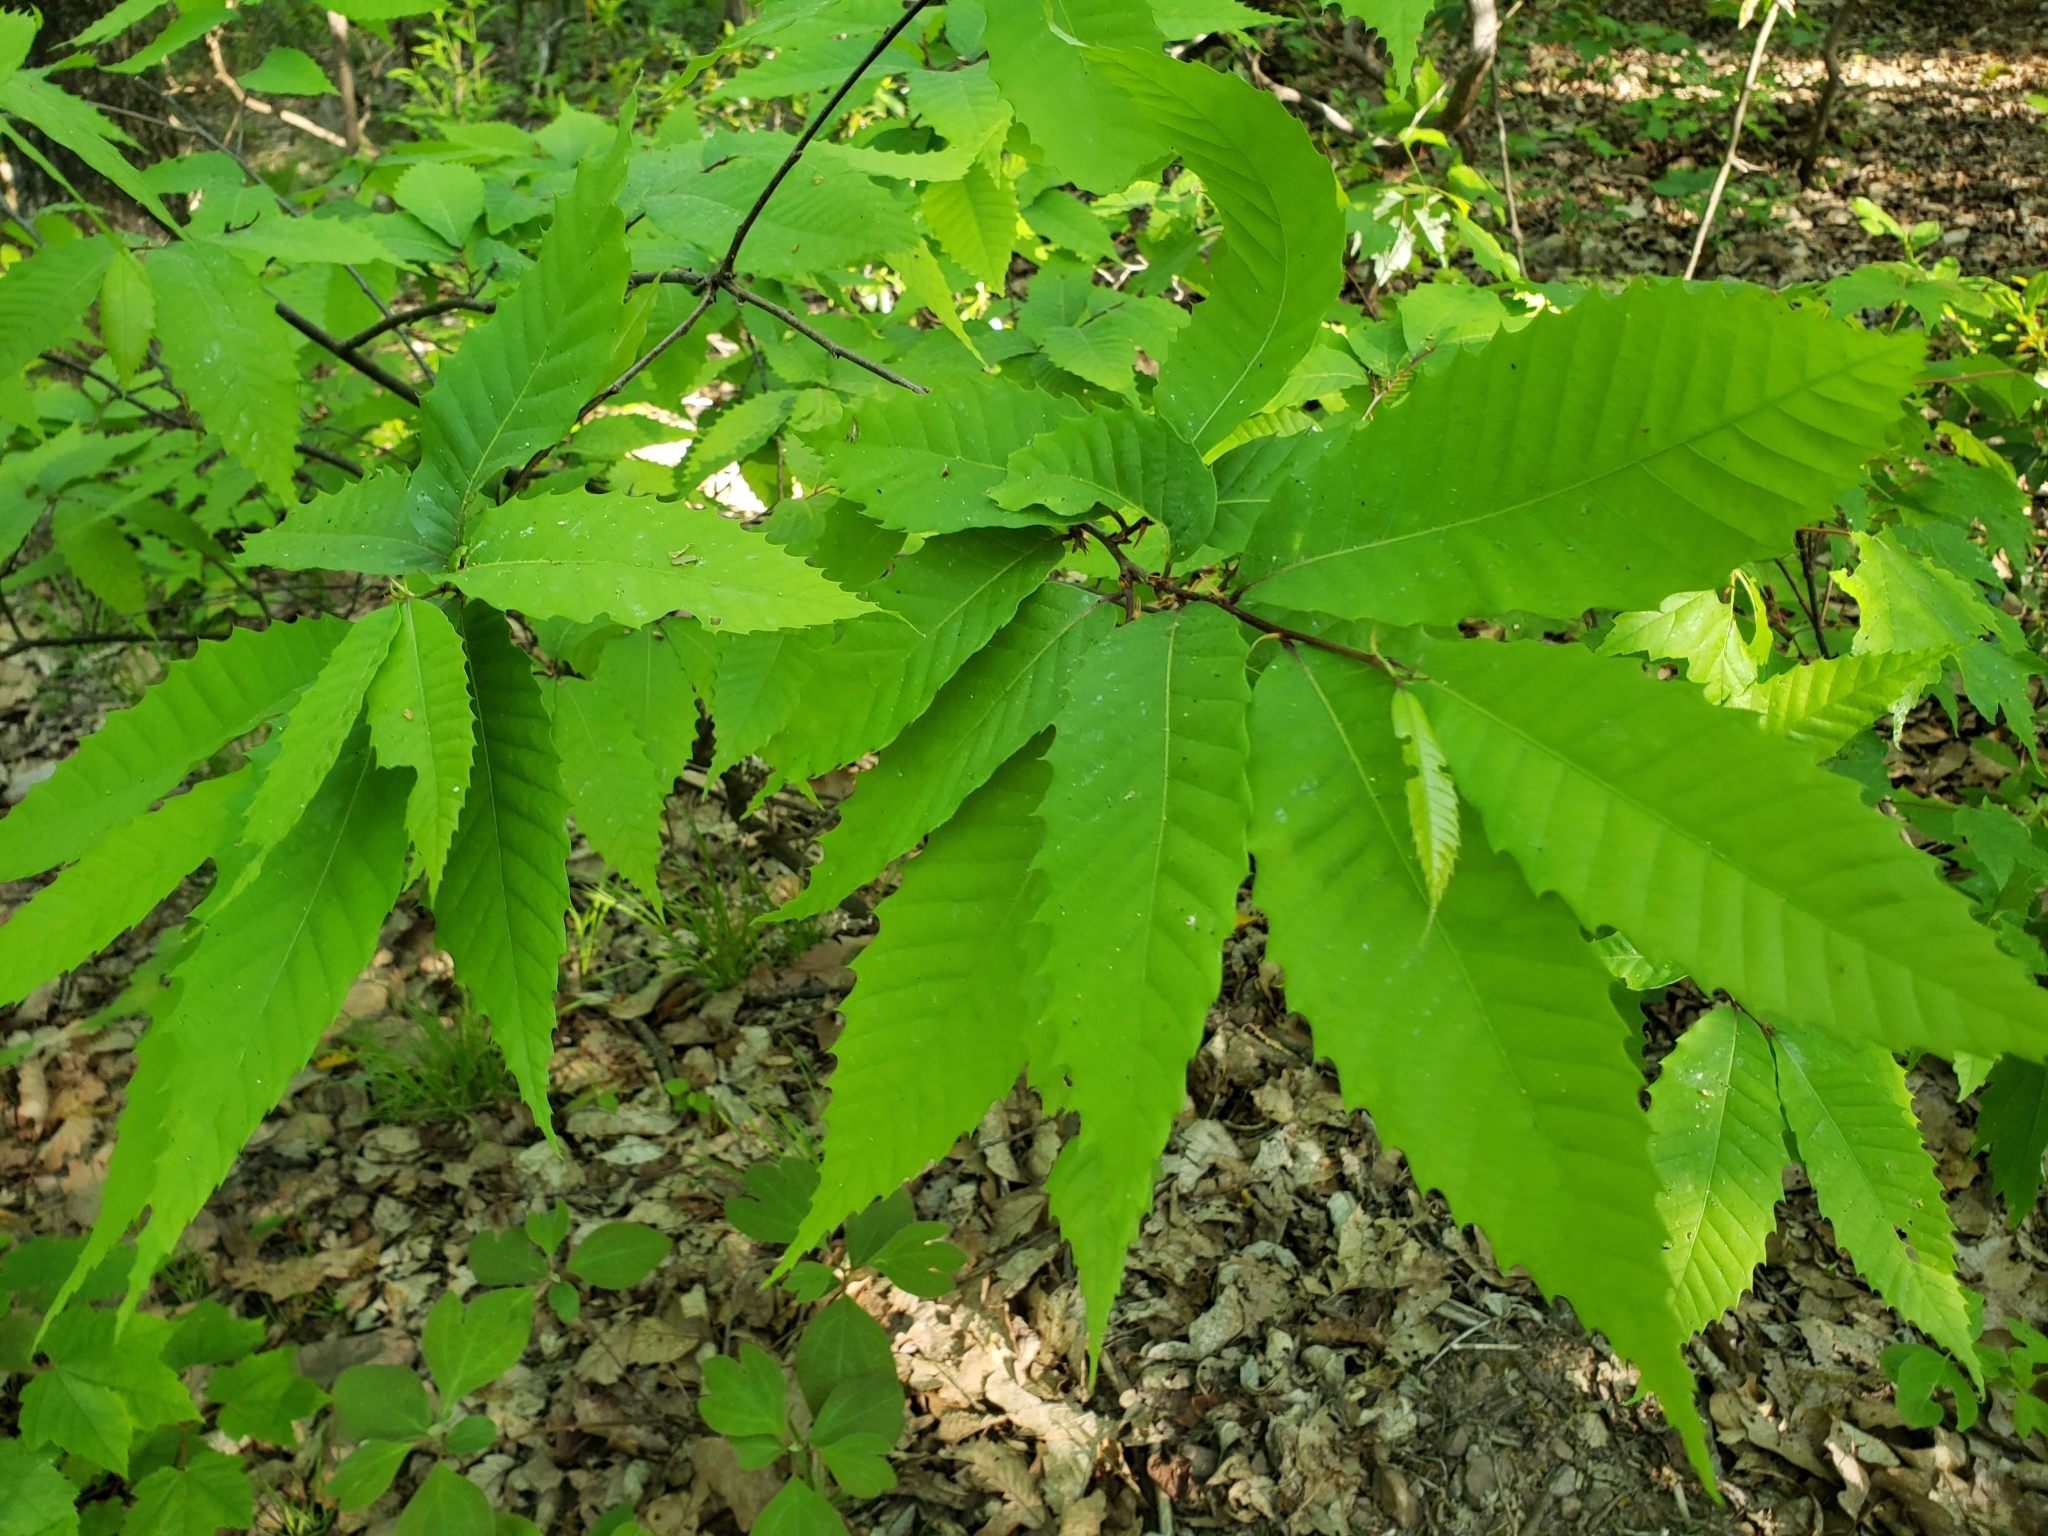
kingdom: Plantae
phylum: Tracheophyta
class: Magnoliopsida
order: Fagales
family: Fagaceae
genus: Castanea
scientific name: Castanea dentata
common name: American chestnut
